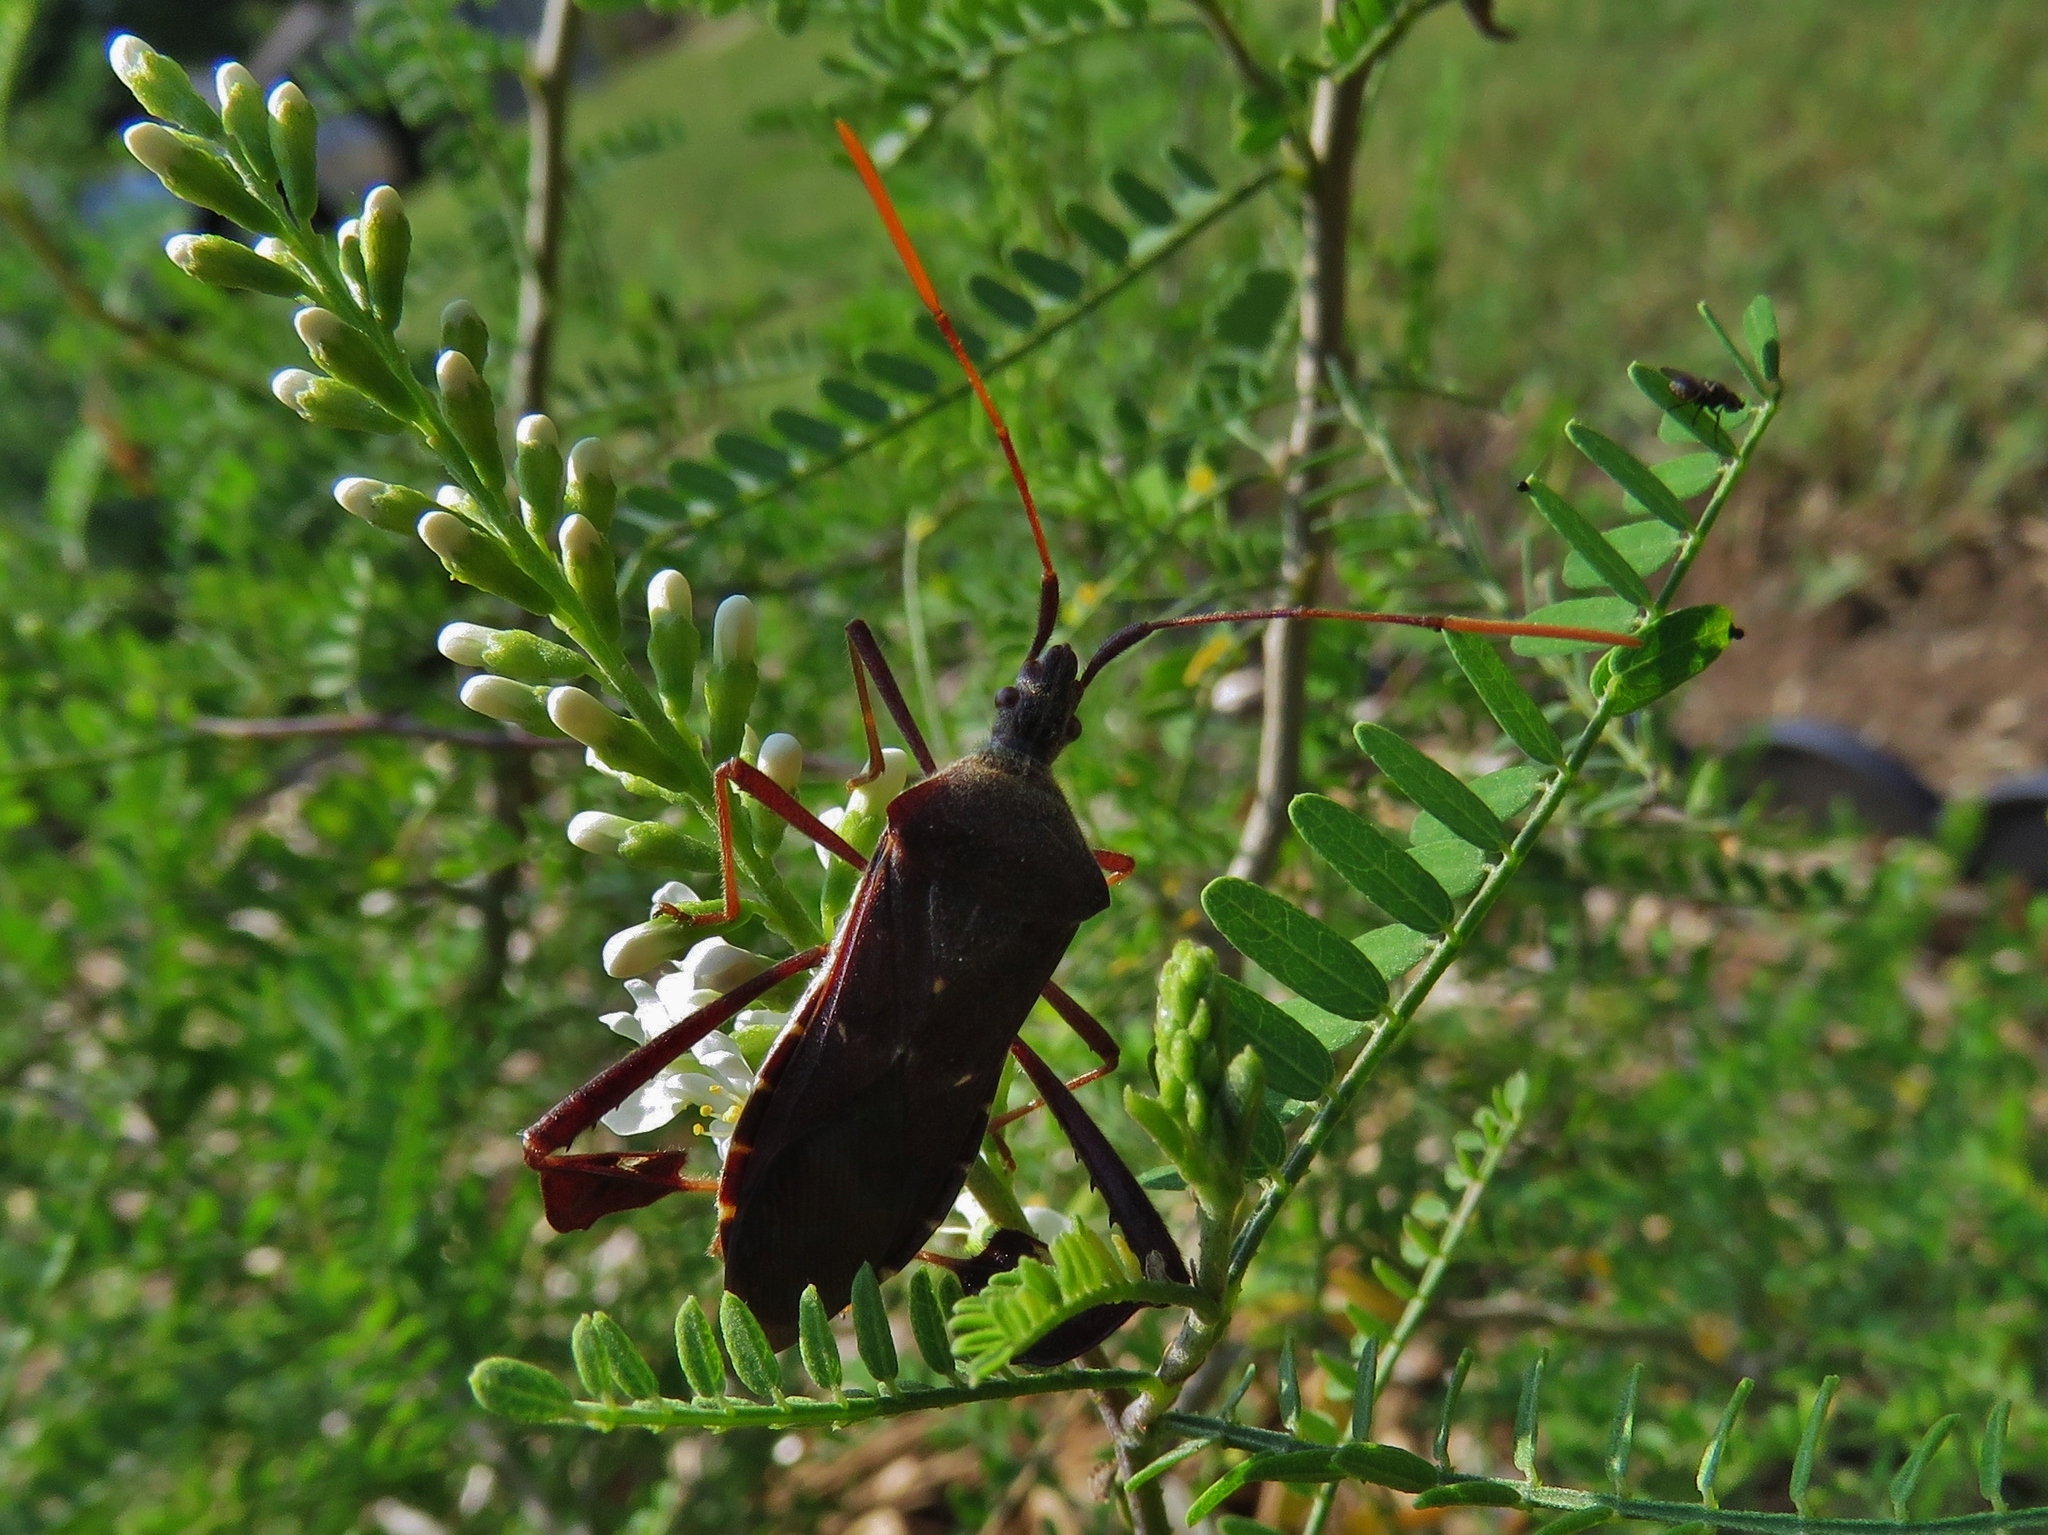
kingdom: Animalia
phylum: Arthropoda
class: Insecta
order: Hemiptera
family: Coreidae
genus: Leptoglossus
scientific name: Leptoglossus oppositus
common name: Northern leaf-footed bug
